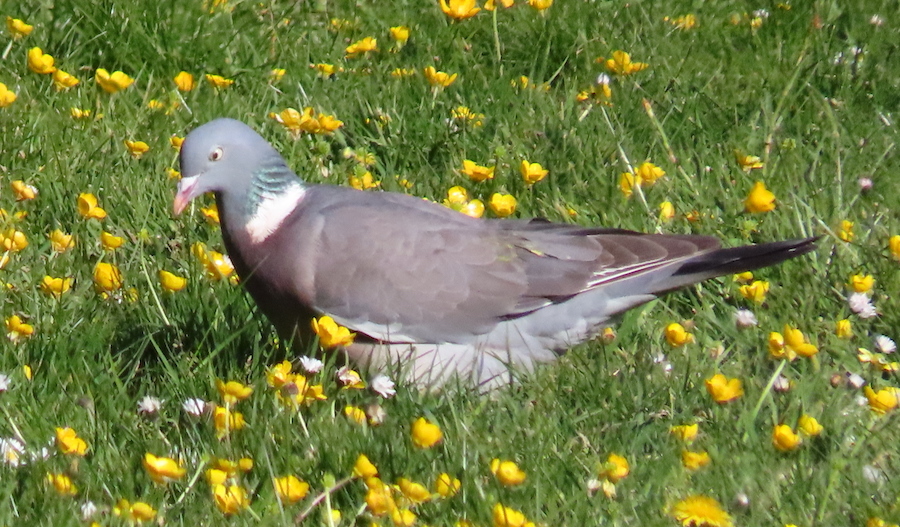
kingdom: Animalia
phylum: Chordata
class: Aves
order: Columbiformes
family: Columbidae
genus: Columba
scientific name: Columba palumbus
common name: Common wood pigeon
